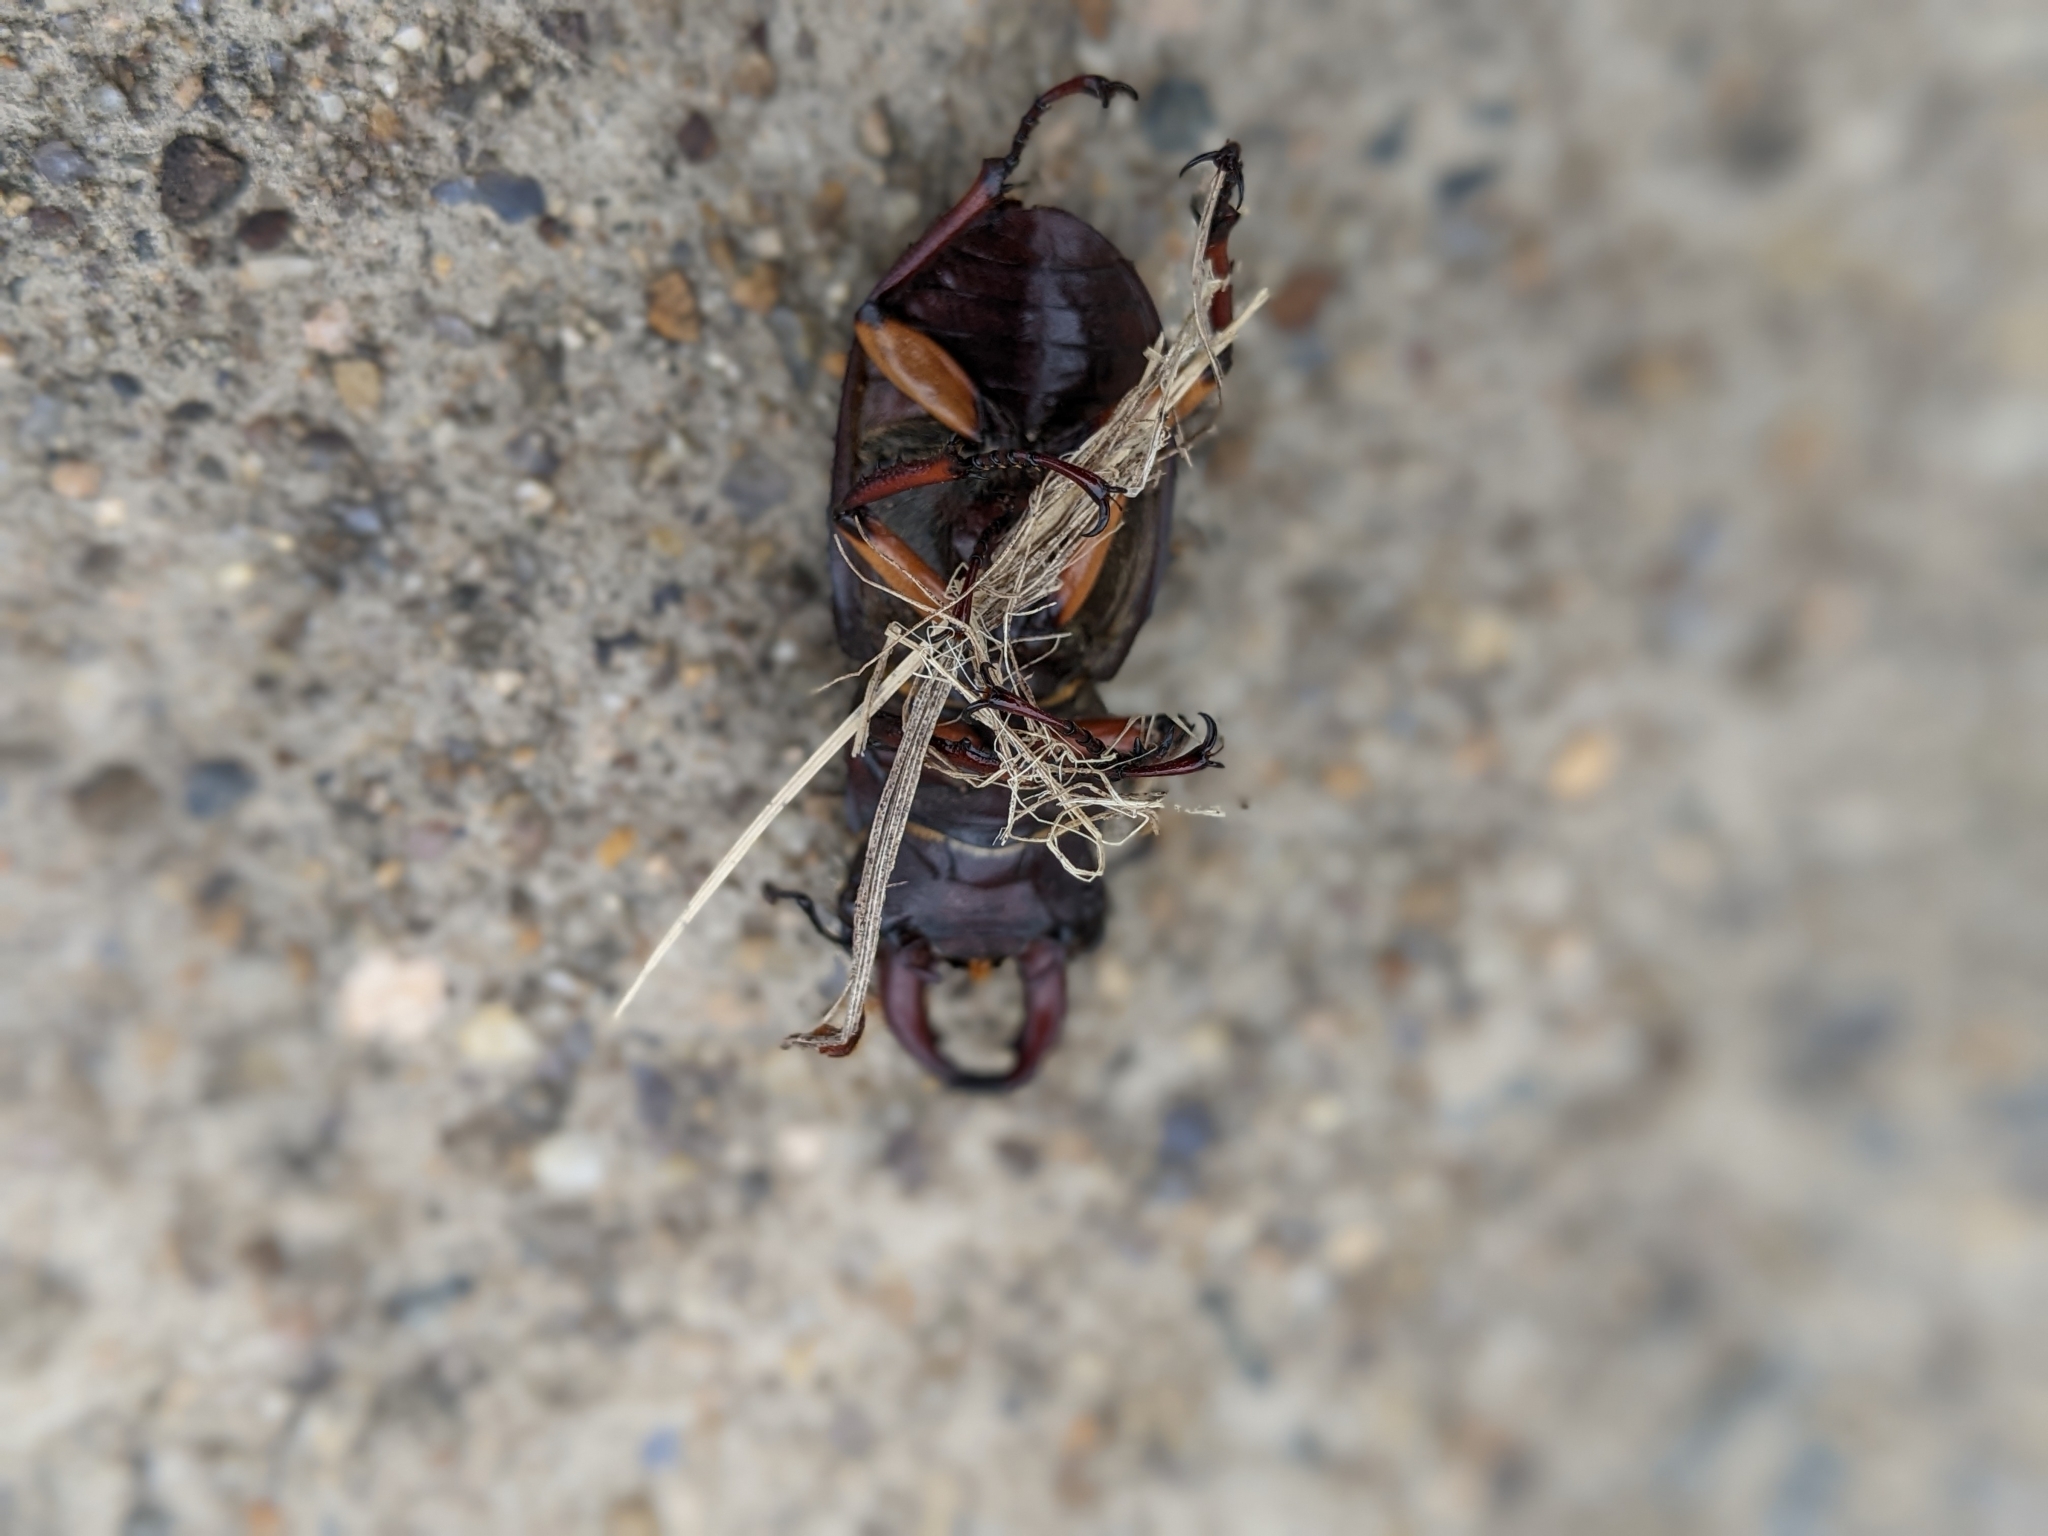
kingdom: Animalia
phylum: Arthropoda
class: Insecta
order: Coleoptera
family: Lucanidae
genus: Lucanus
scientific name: Lucanus capreolus
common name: Stag beetle
